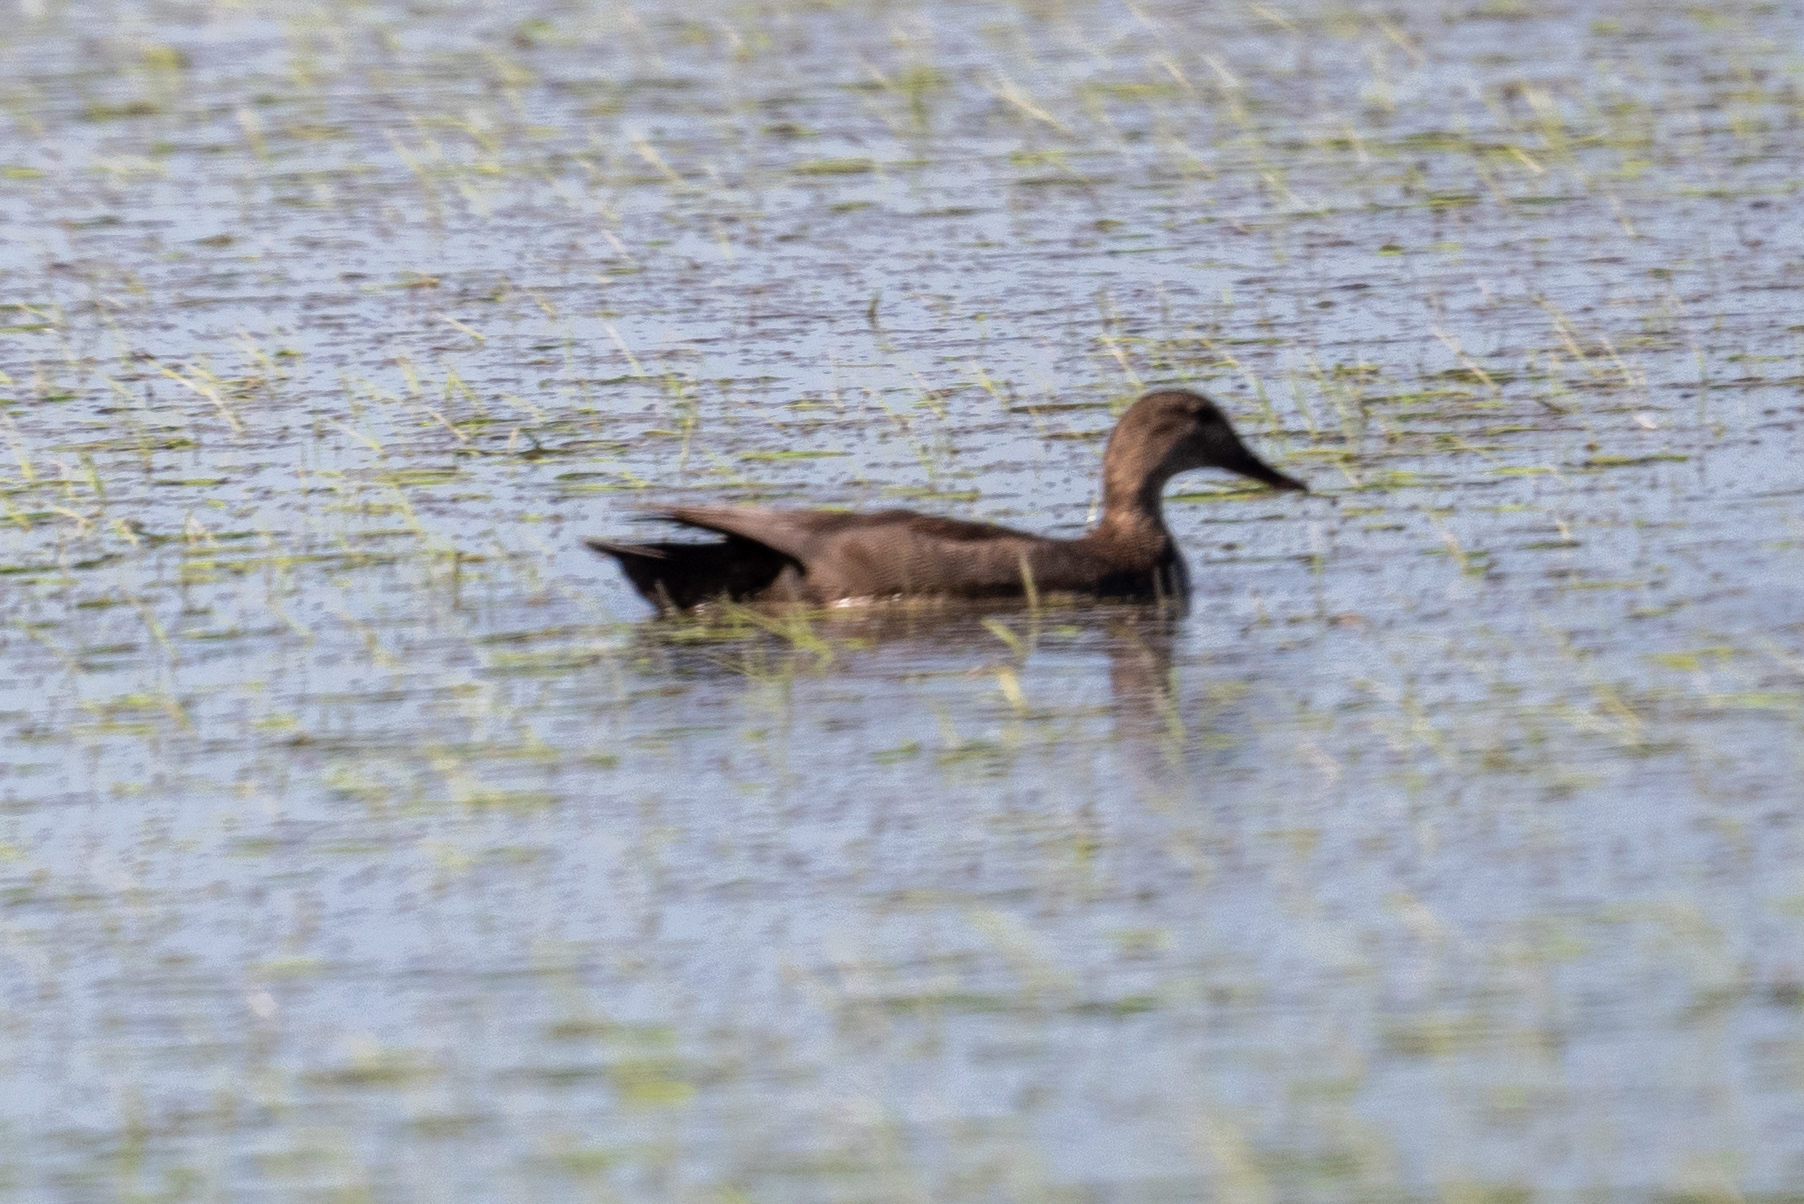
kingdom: Animalia
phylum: Chordata
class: Aves
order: Anseriformes
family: Anatidae
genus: Mareca
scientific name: Mareca strepera
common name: Gadwall
